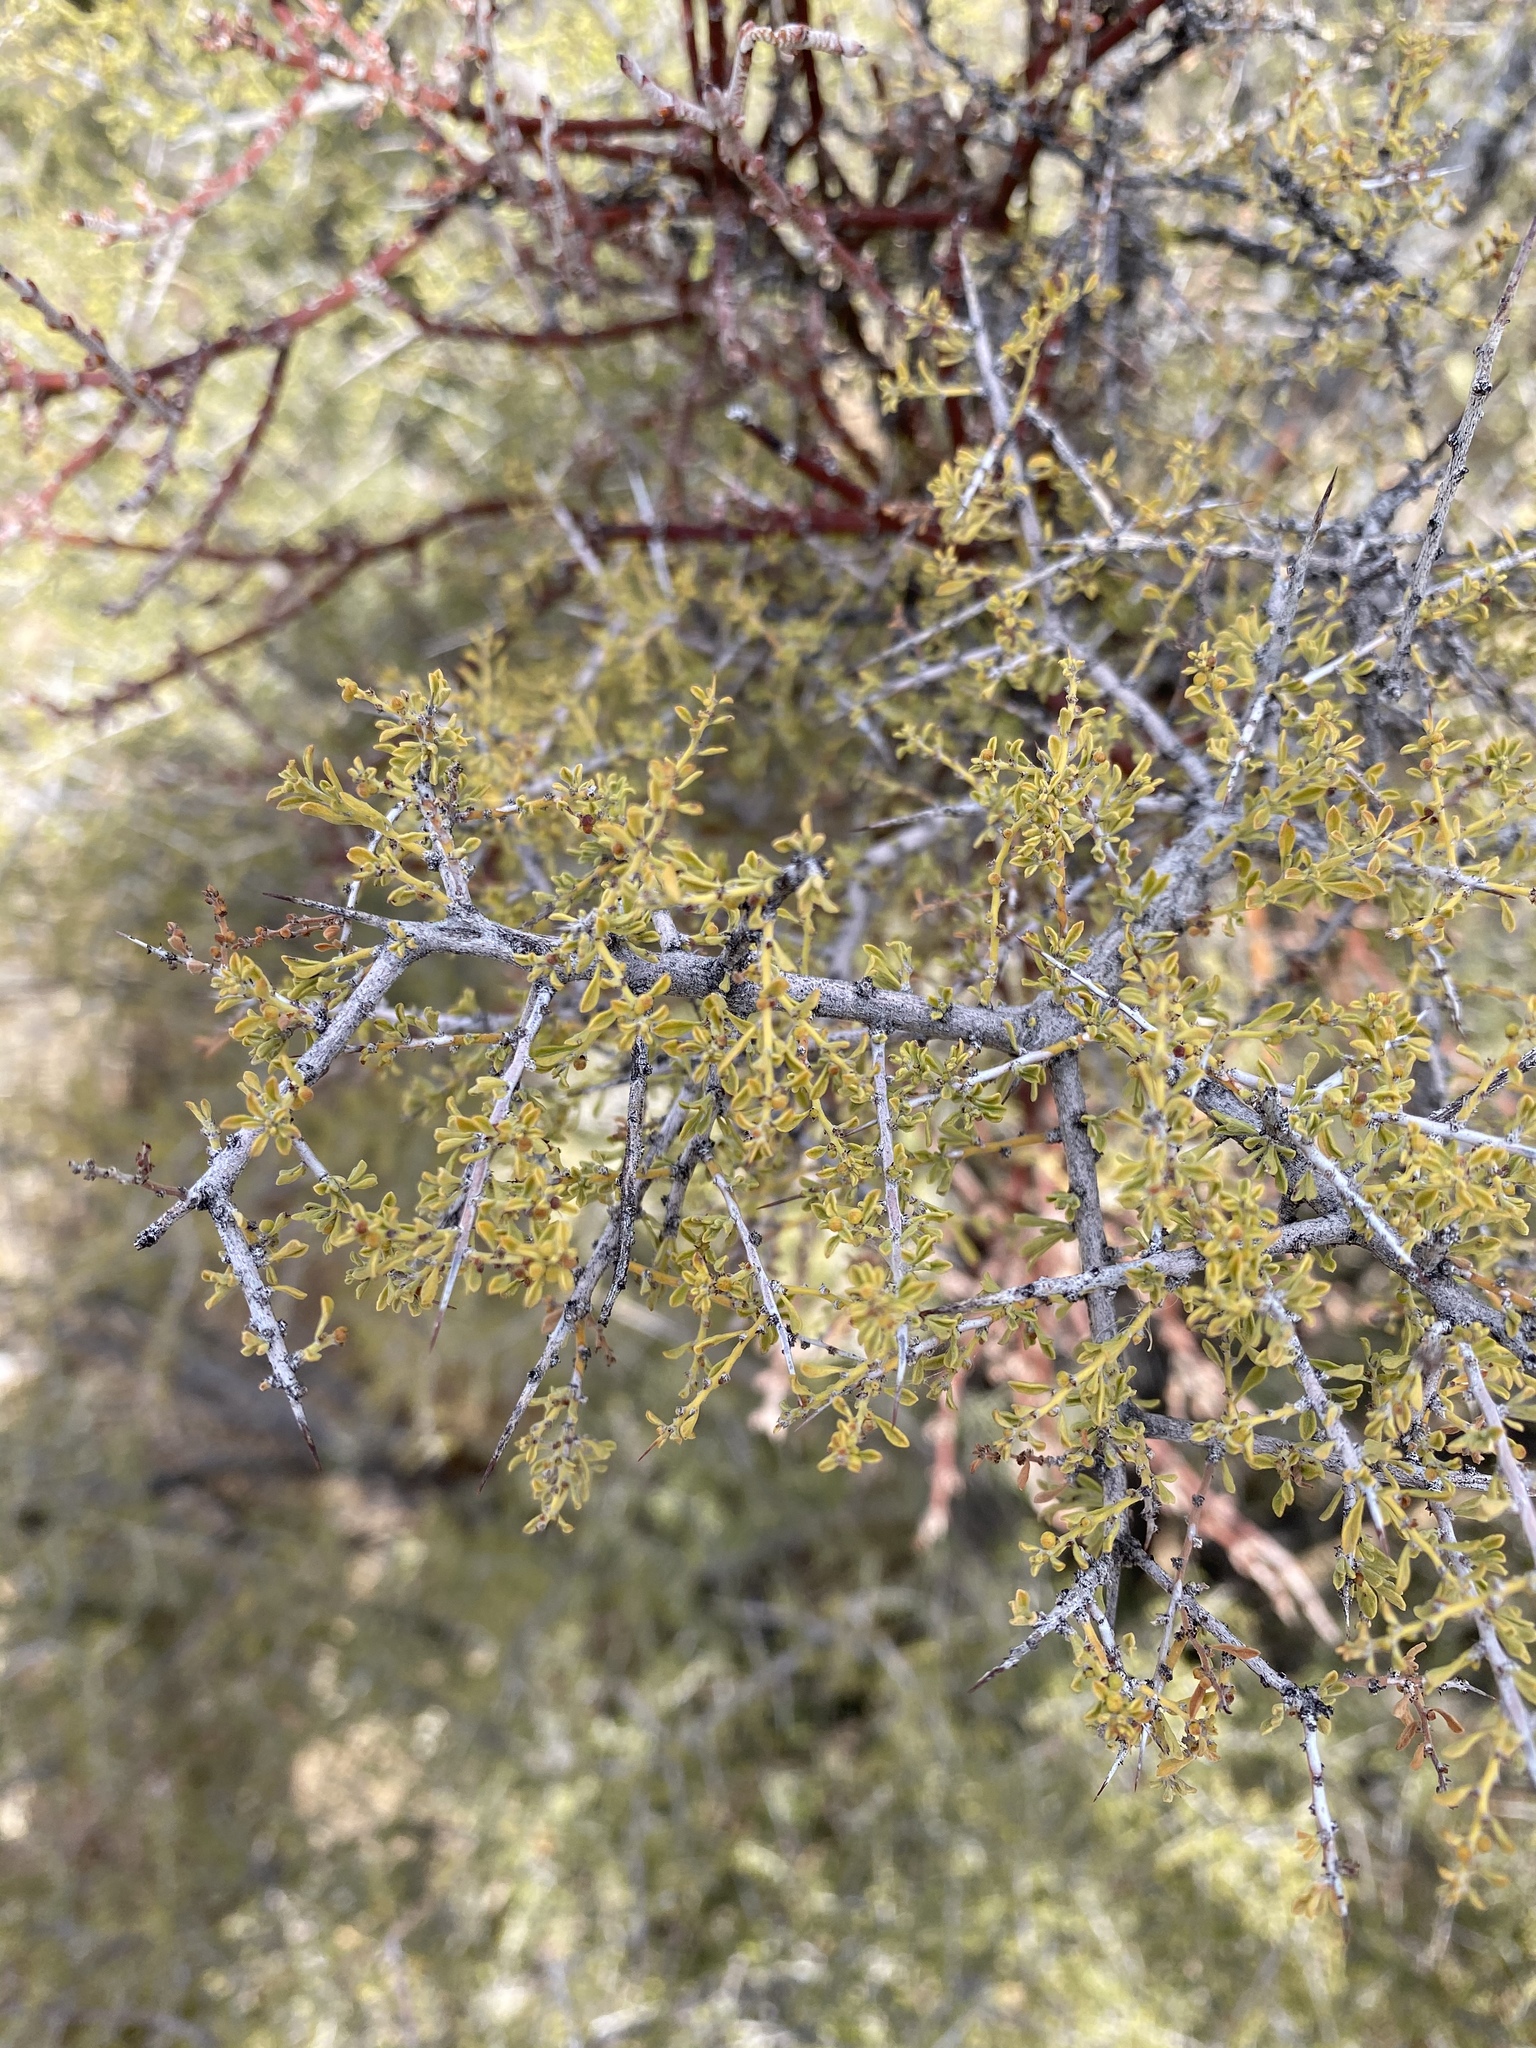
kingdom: Plantae
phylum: Tracheophyta
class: Magnoliopsida
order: Rosales
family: Rhamnaceae
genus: Condalia
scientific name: Condalia warnockii
